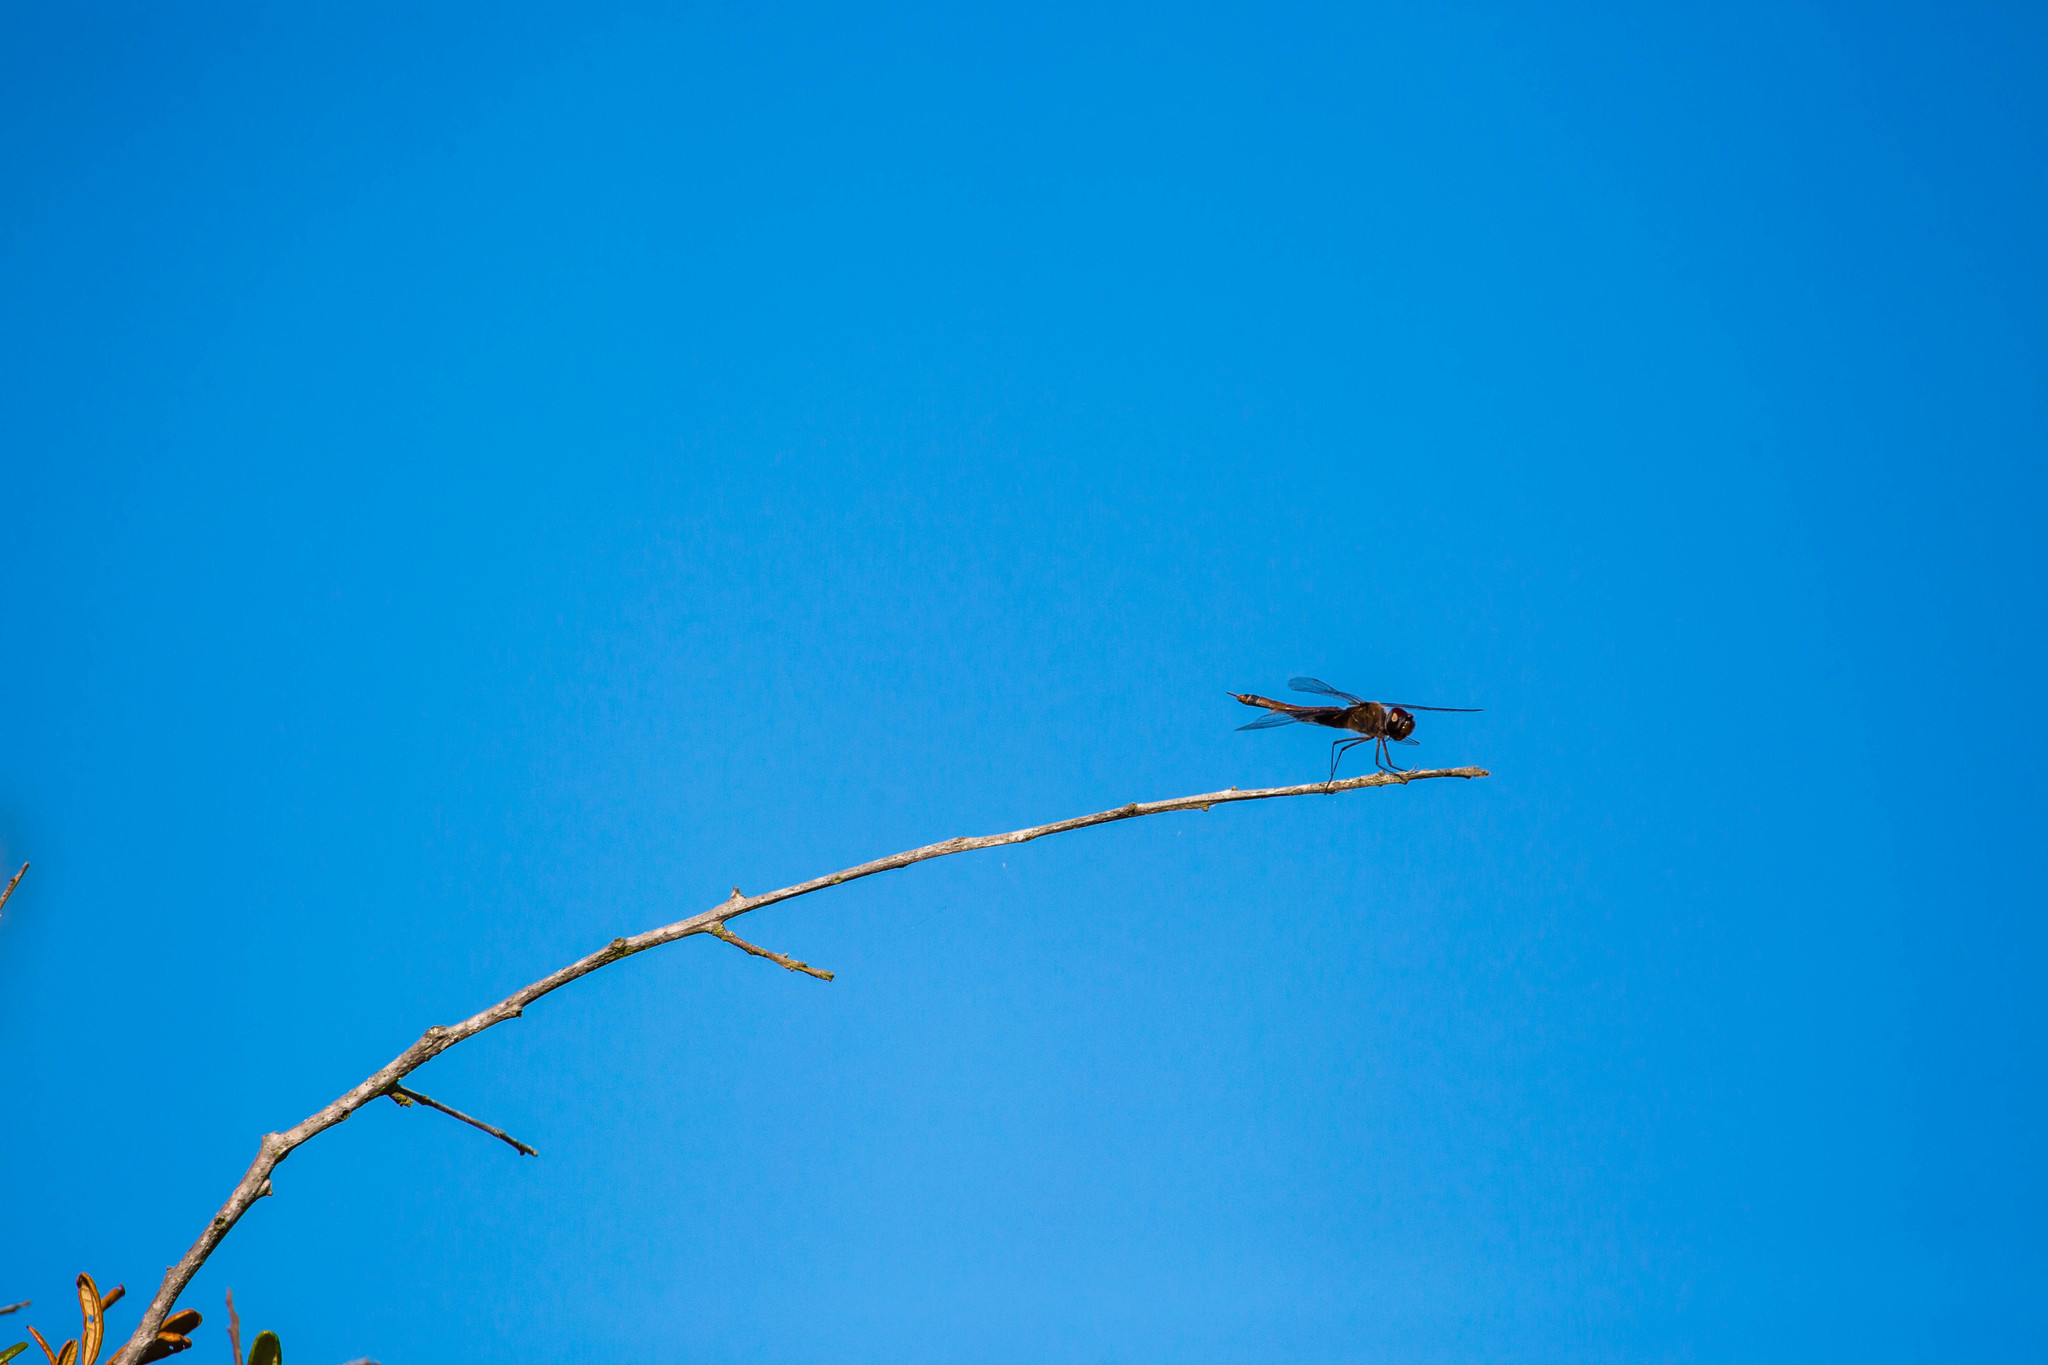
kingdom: Animalia
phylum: Arthropoda
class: Insecta
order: Odonata
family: Libellulidae
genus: Tramea
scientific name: Tramea carolina
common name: Carolina saddlebags
